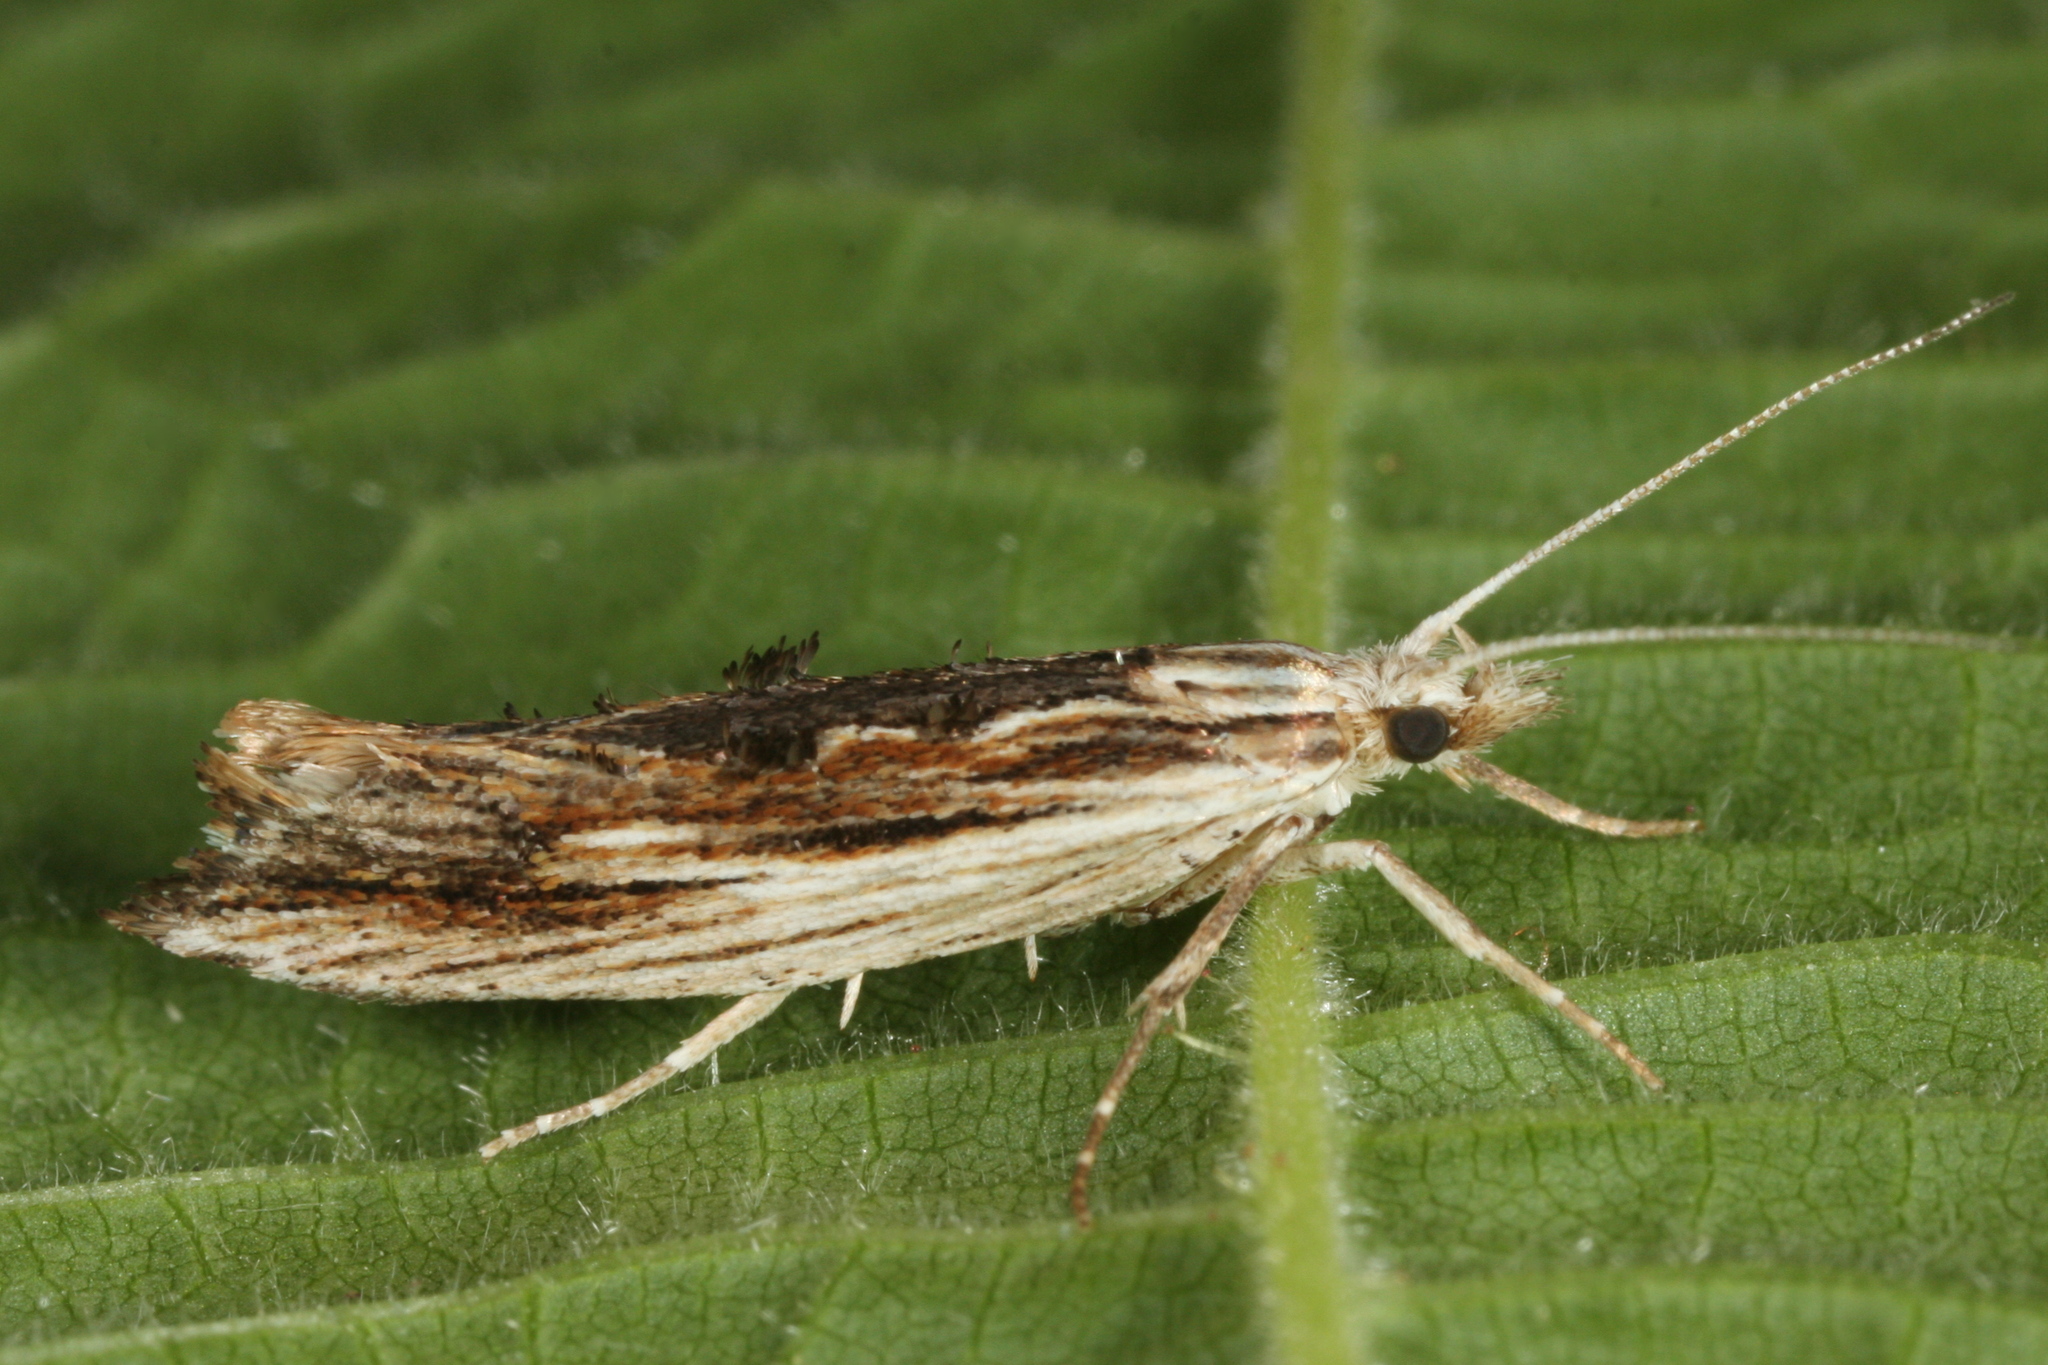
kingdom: Animalia
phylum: Arthropoda
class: Insecta
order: Lepidoptera
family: Ypsolophidae
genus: Ypsolopha
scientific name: Ypsolopha scabrella
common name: Wainscot smudge
